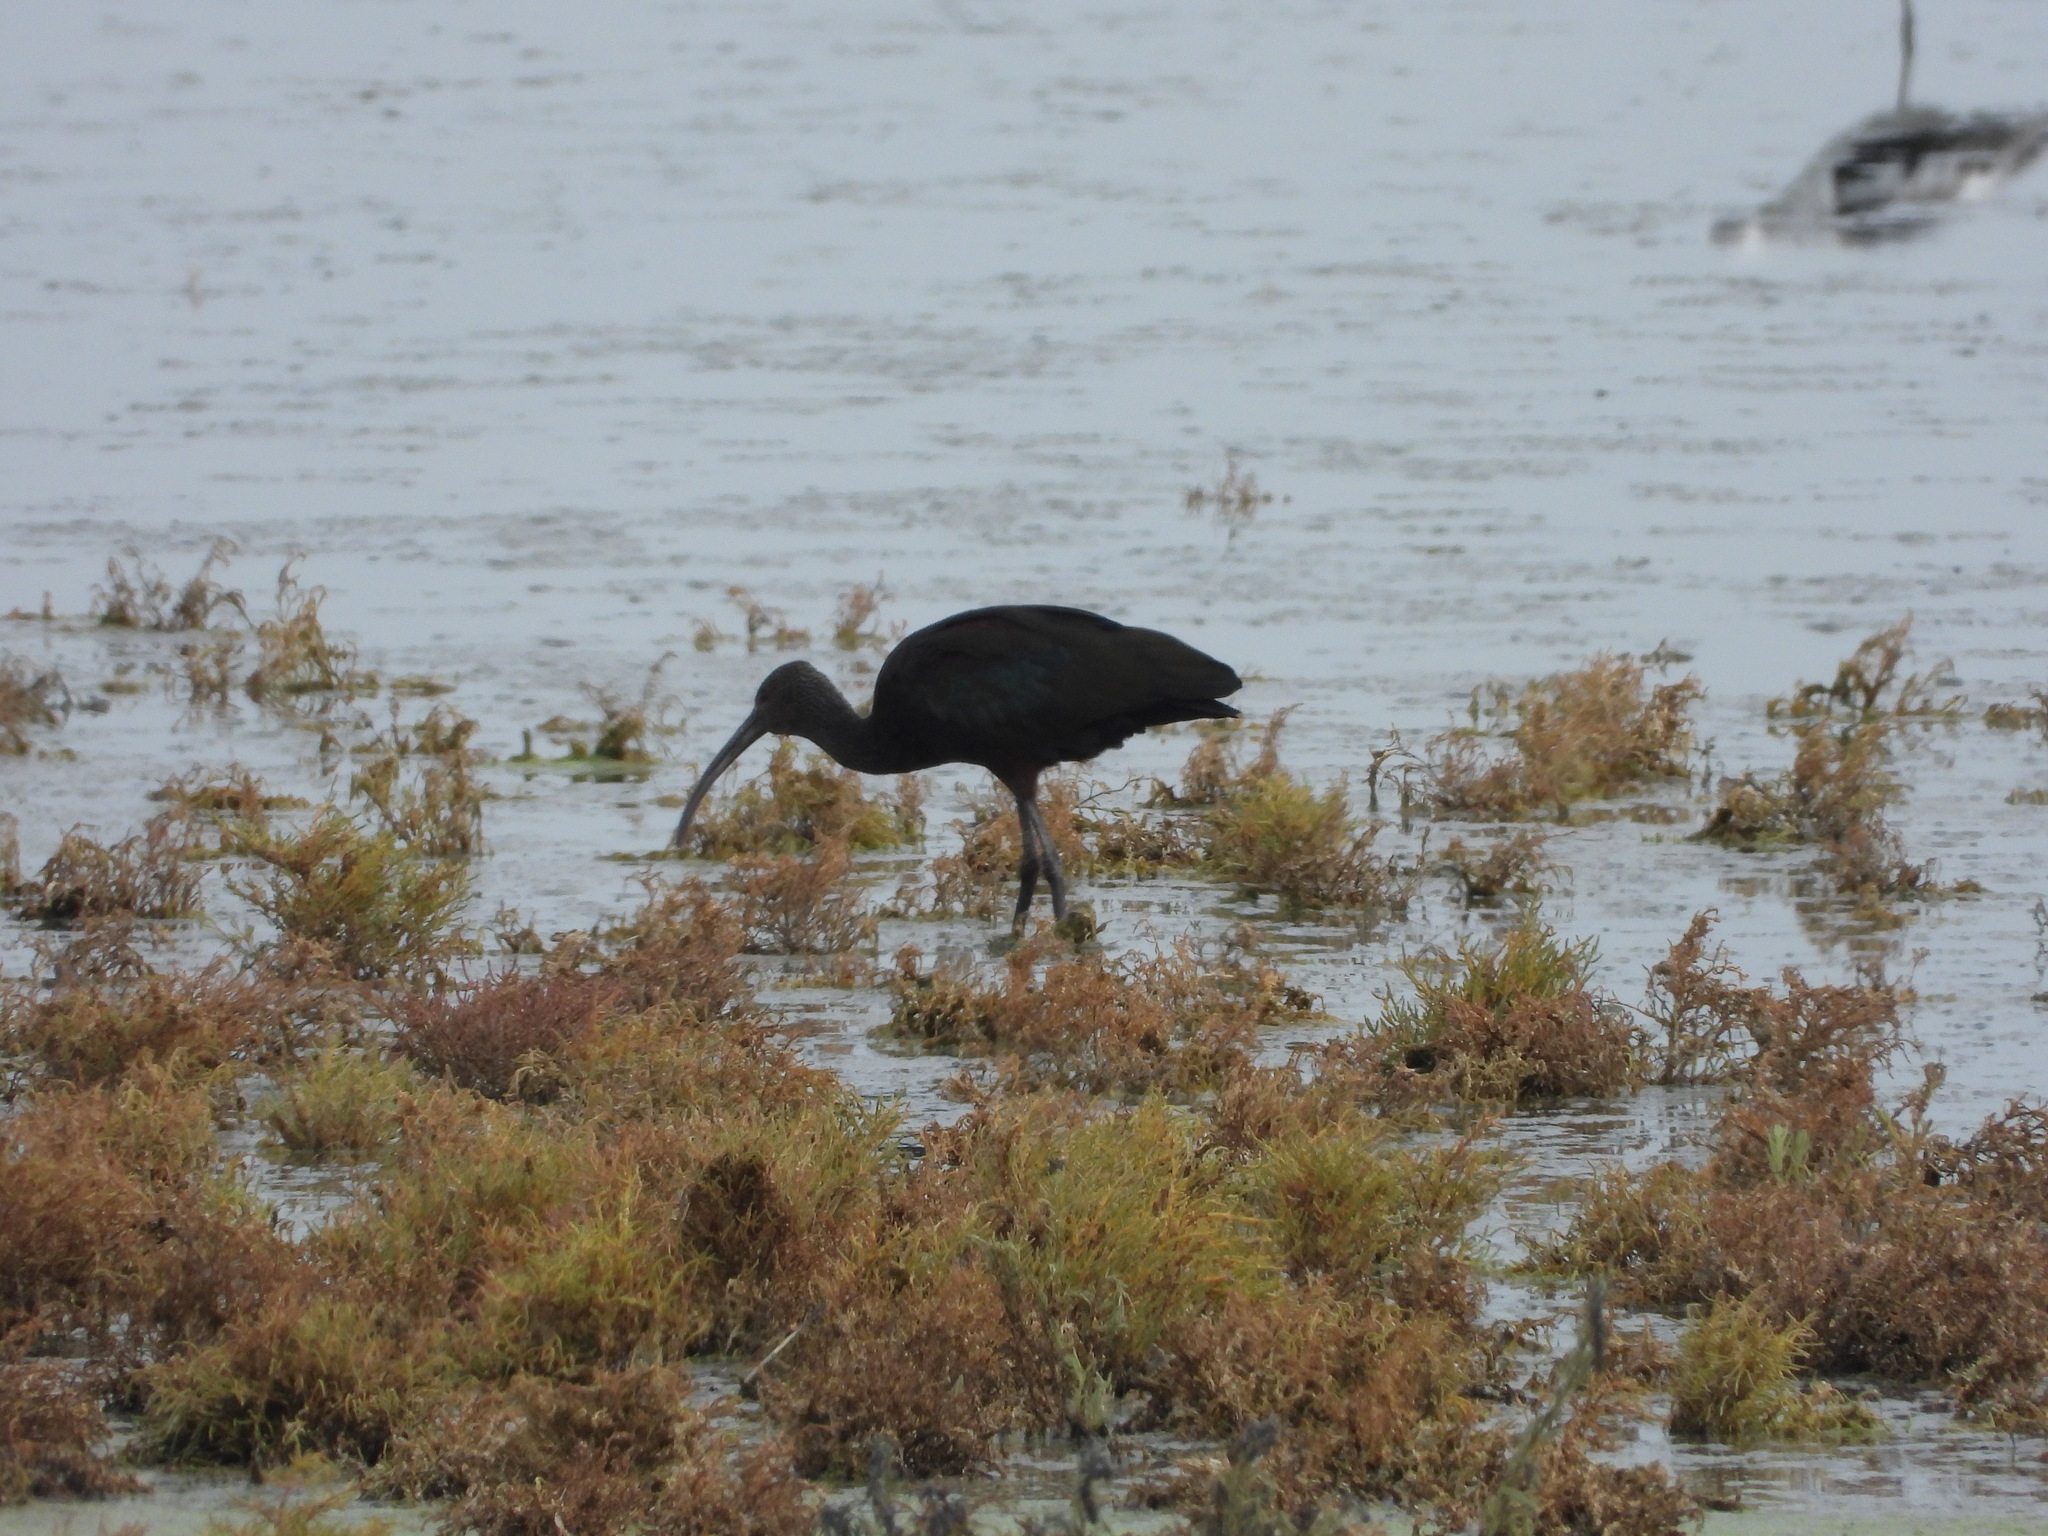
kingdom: Animalia
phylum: Chordata
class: Aves
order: Pelecaniformes
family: Threskiornithidae
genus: Plegadis
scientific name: Plegadis chihi
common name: White-faced ibis
